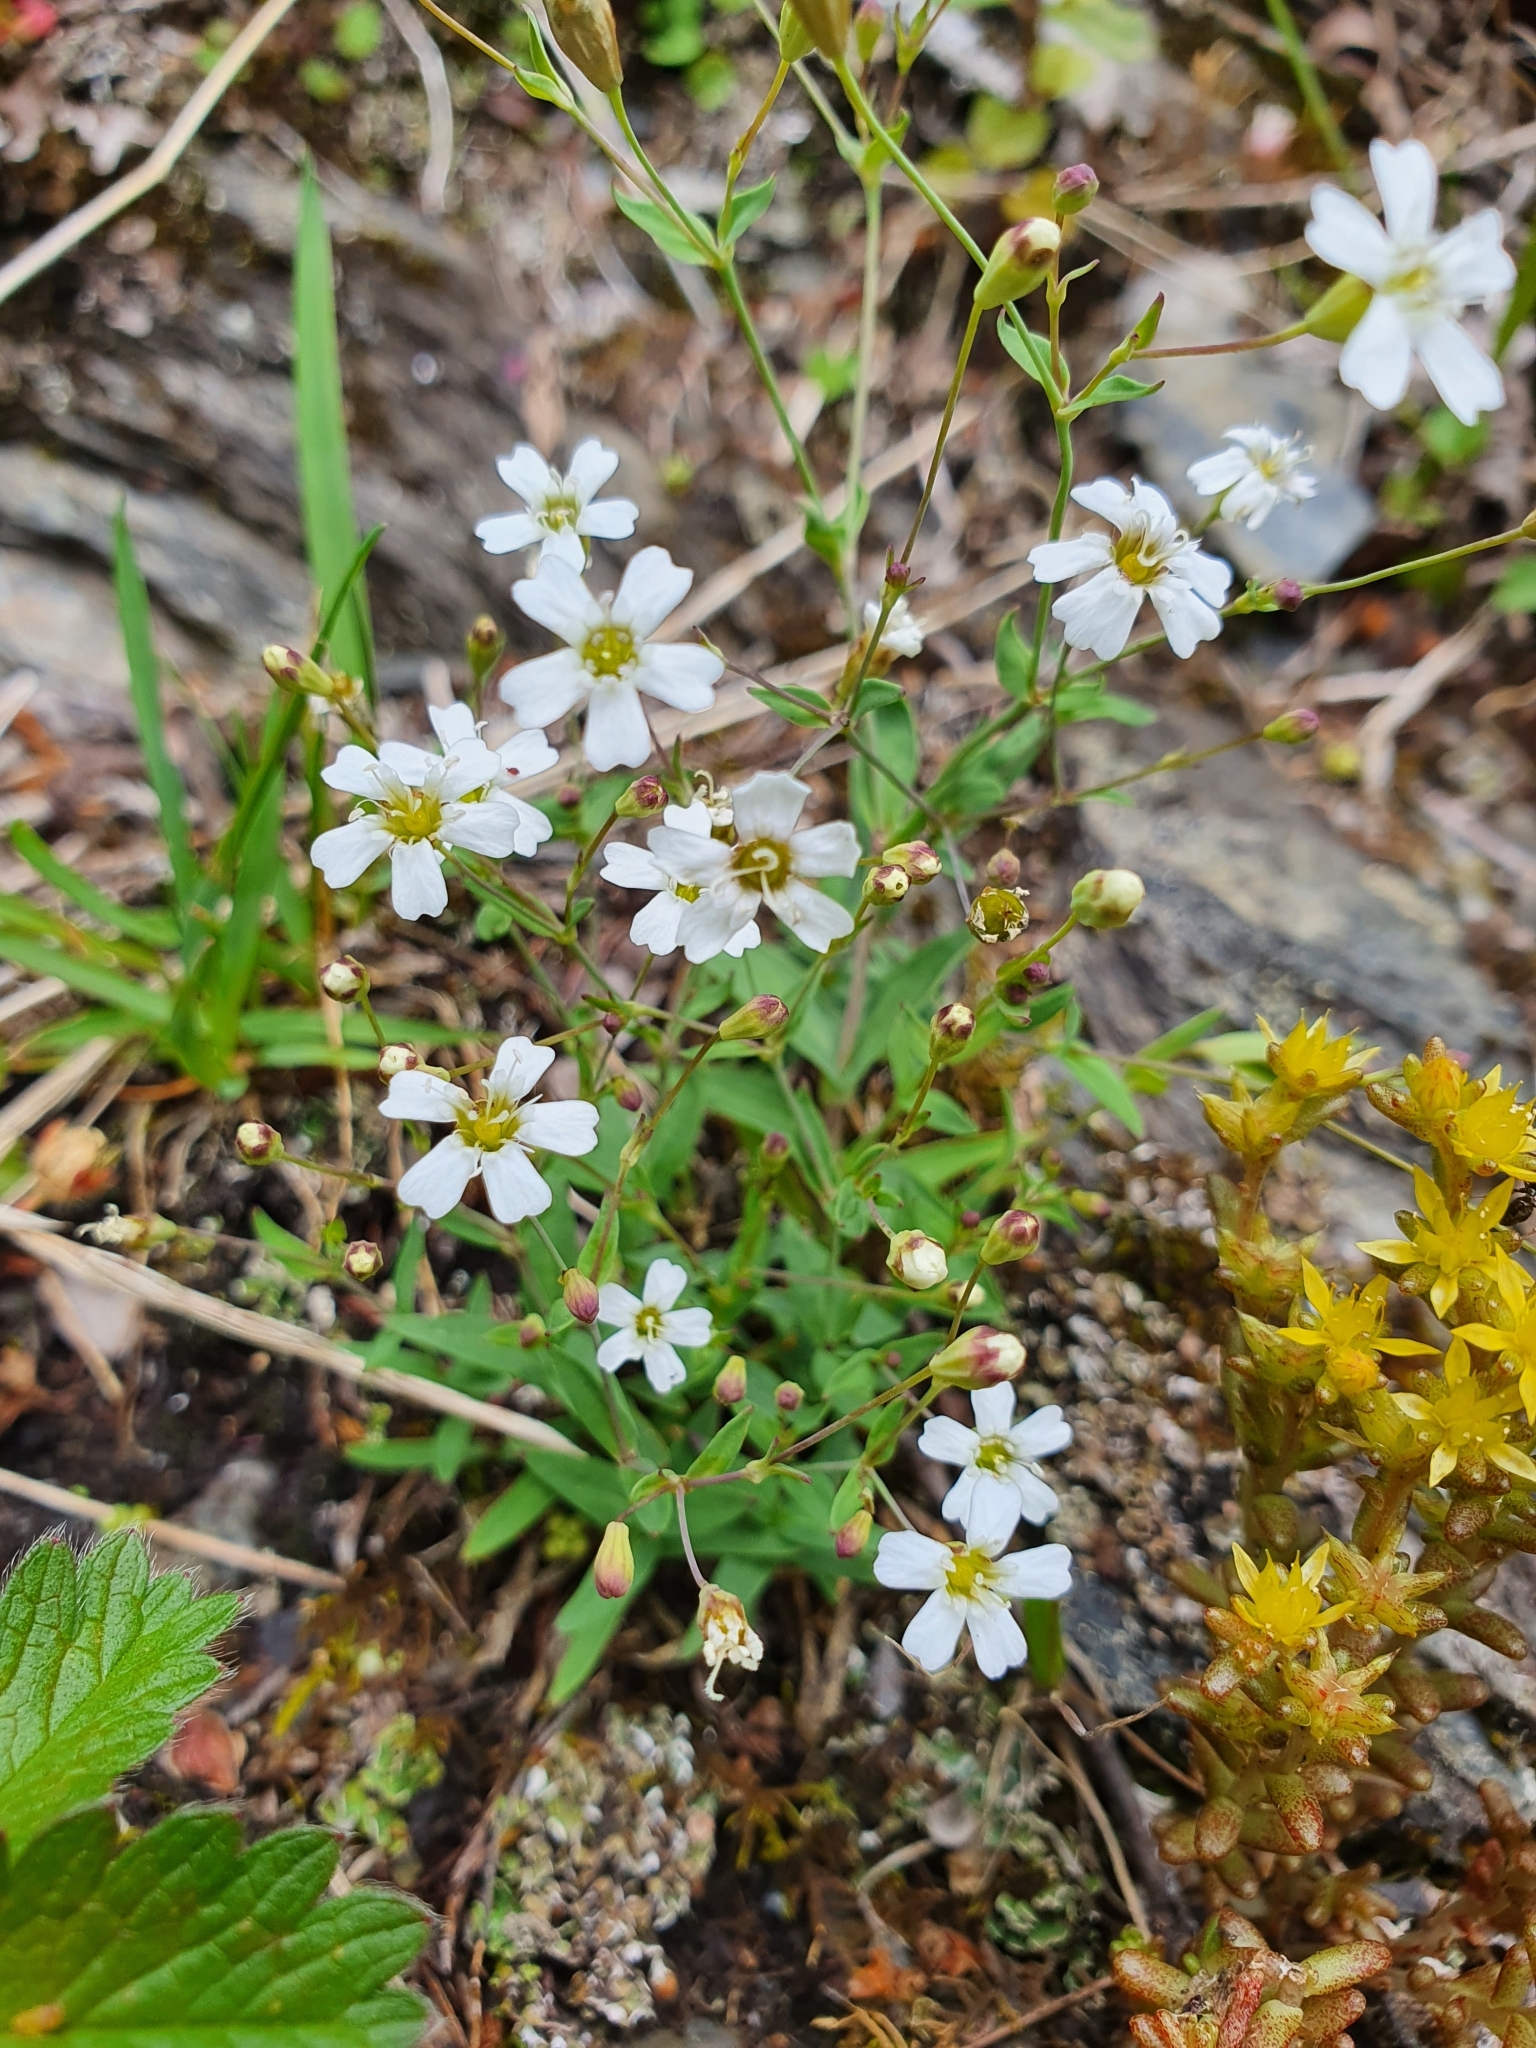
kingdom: Plantae
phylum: Tracheophyta
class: Magnoliopsida
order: Caryophyllales
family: Caryophyllaceae
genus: Atocion
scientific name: Atocion rupestre
